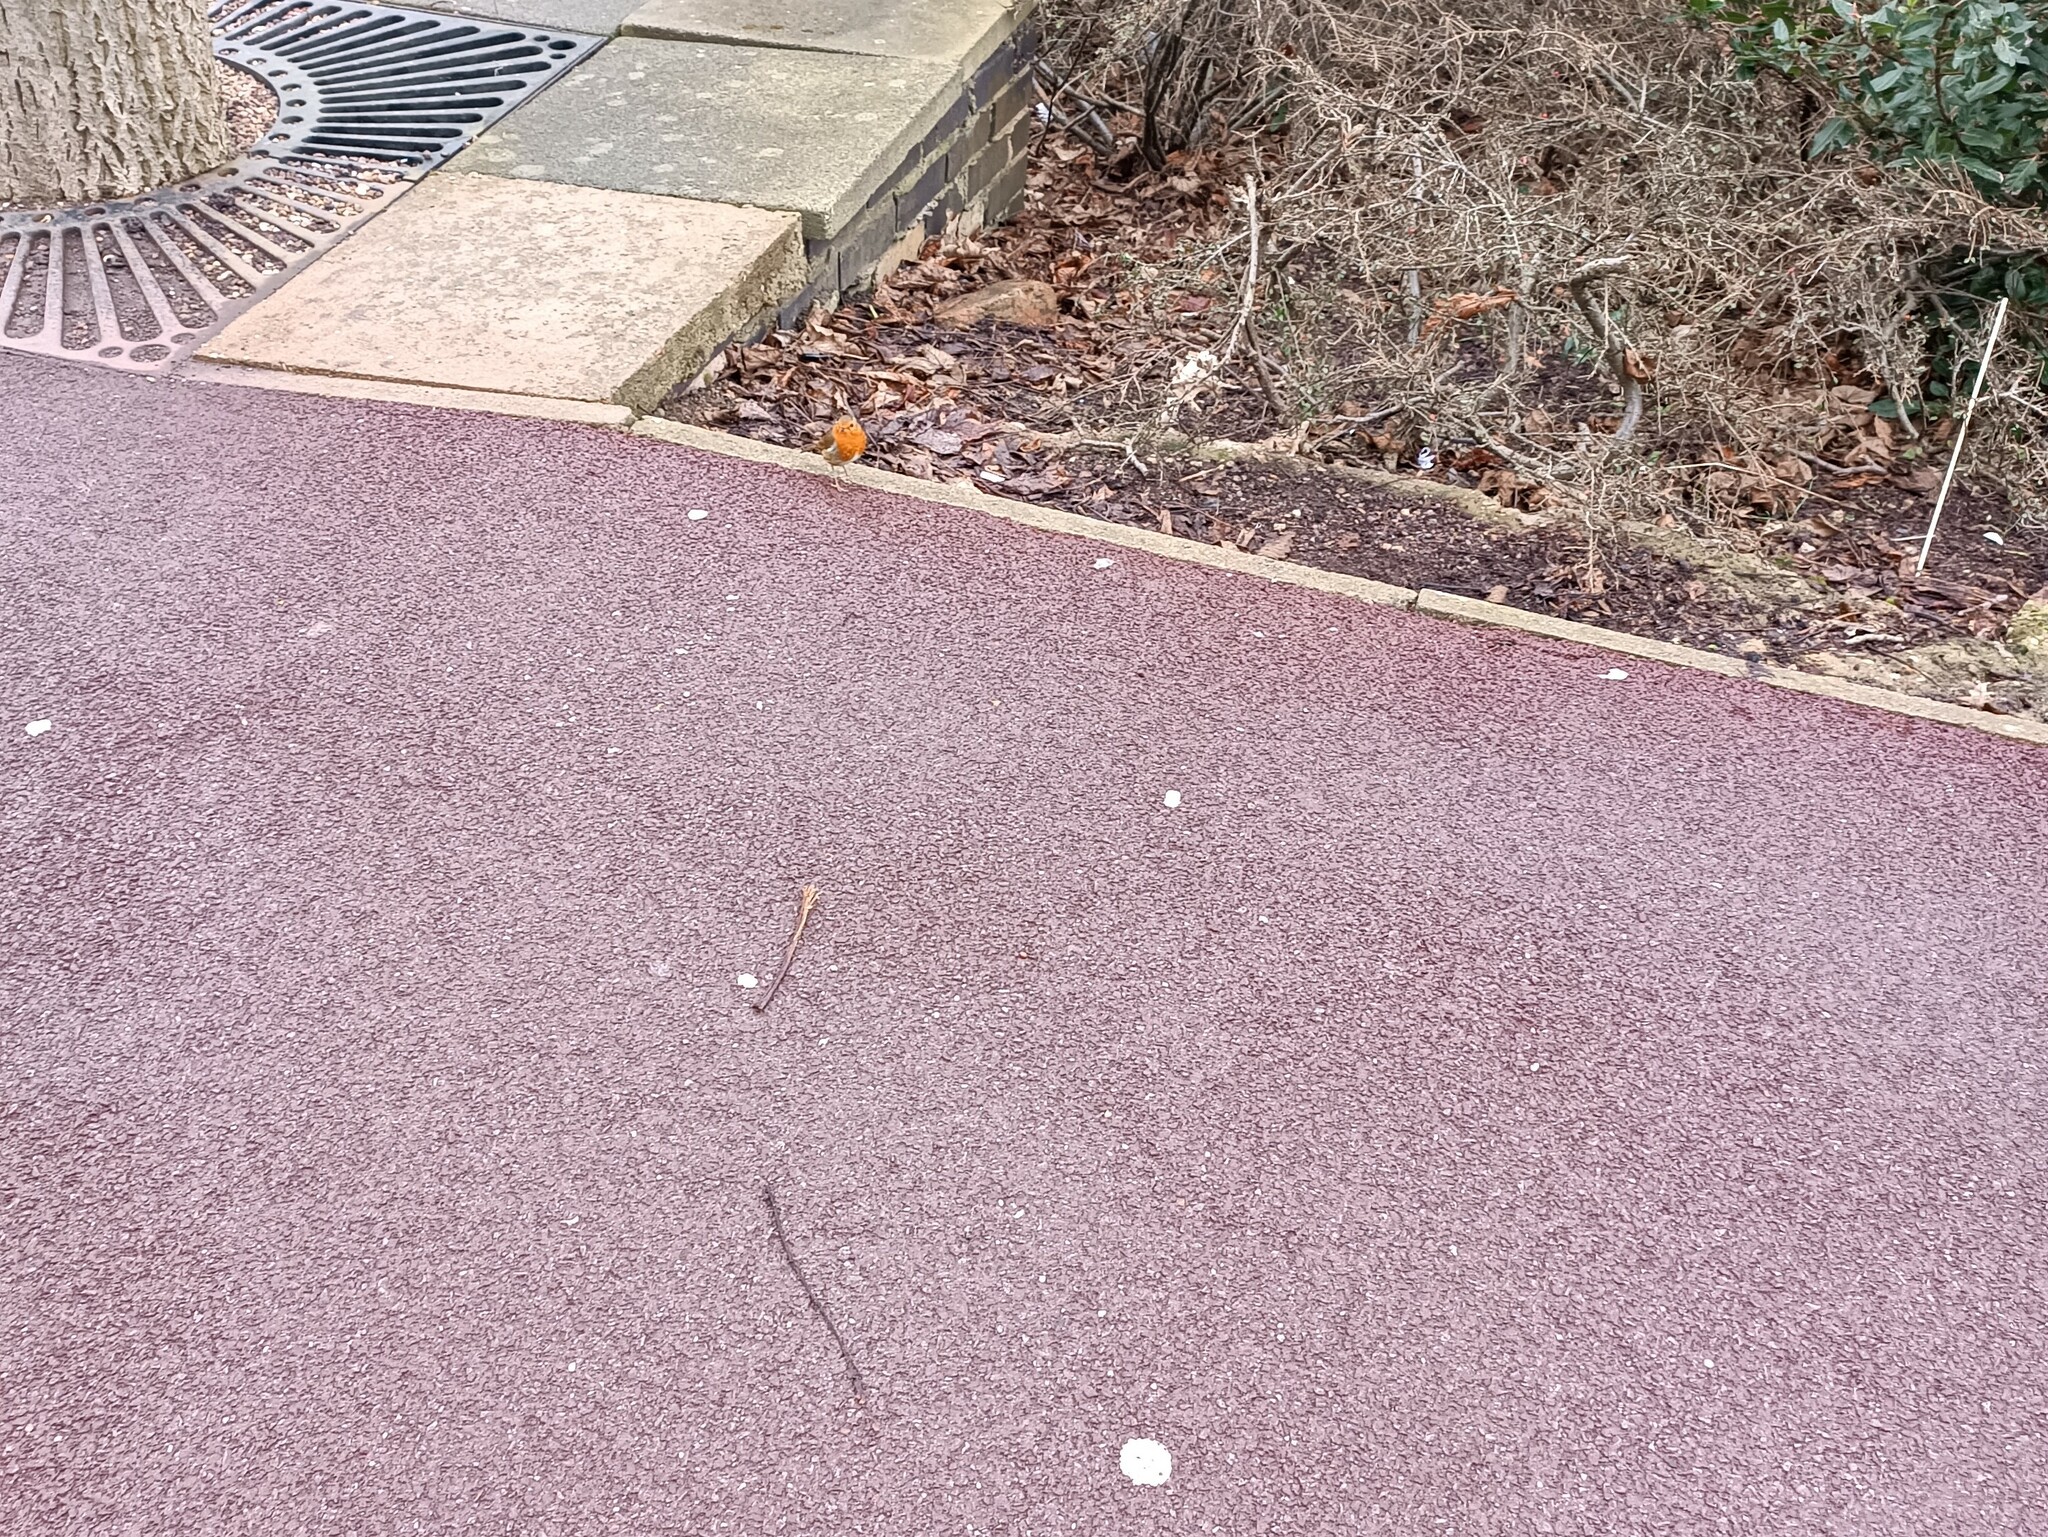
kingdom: Animalia
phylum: Chordata
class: Aves
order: Passeriformes
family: Muscicapidae
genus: Erithacus
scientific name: Erithacus rubecula
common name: European robin
